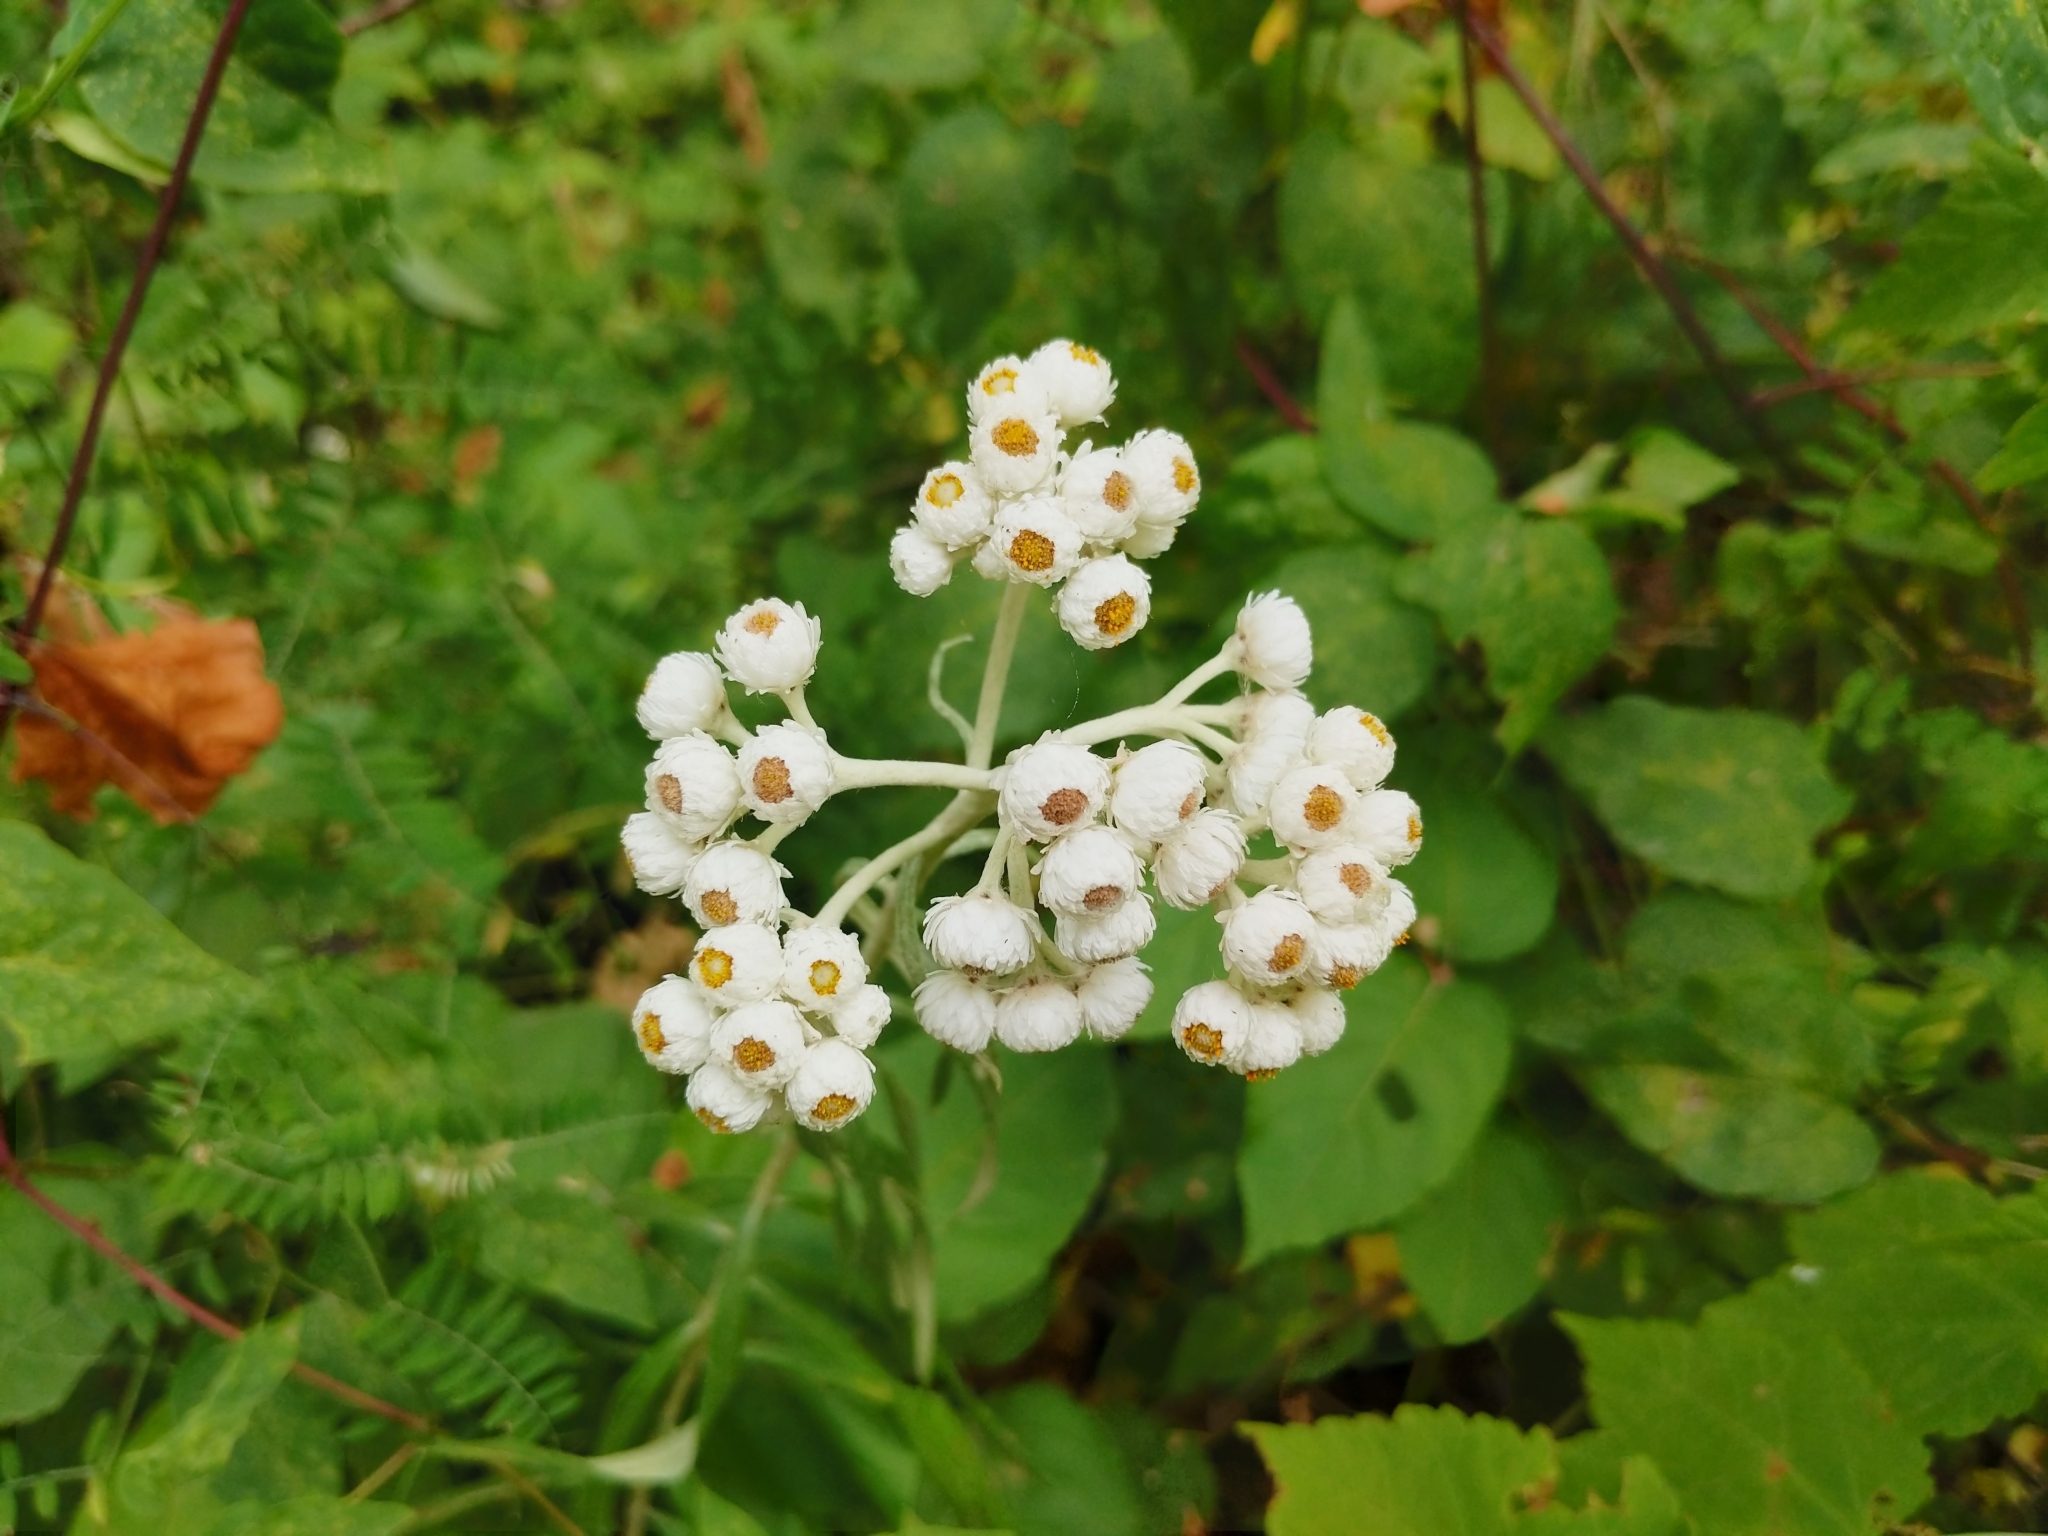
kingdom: Plantae
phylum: Tracheophyta
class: Magnoliopsida
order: Asterales
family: Asteraceae
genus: Anaphalis
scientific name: Anaphalis margaritacea
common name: Pearly everlasting
